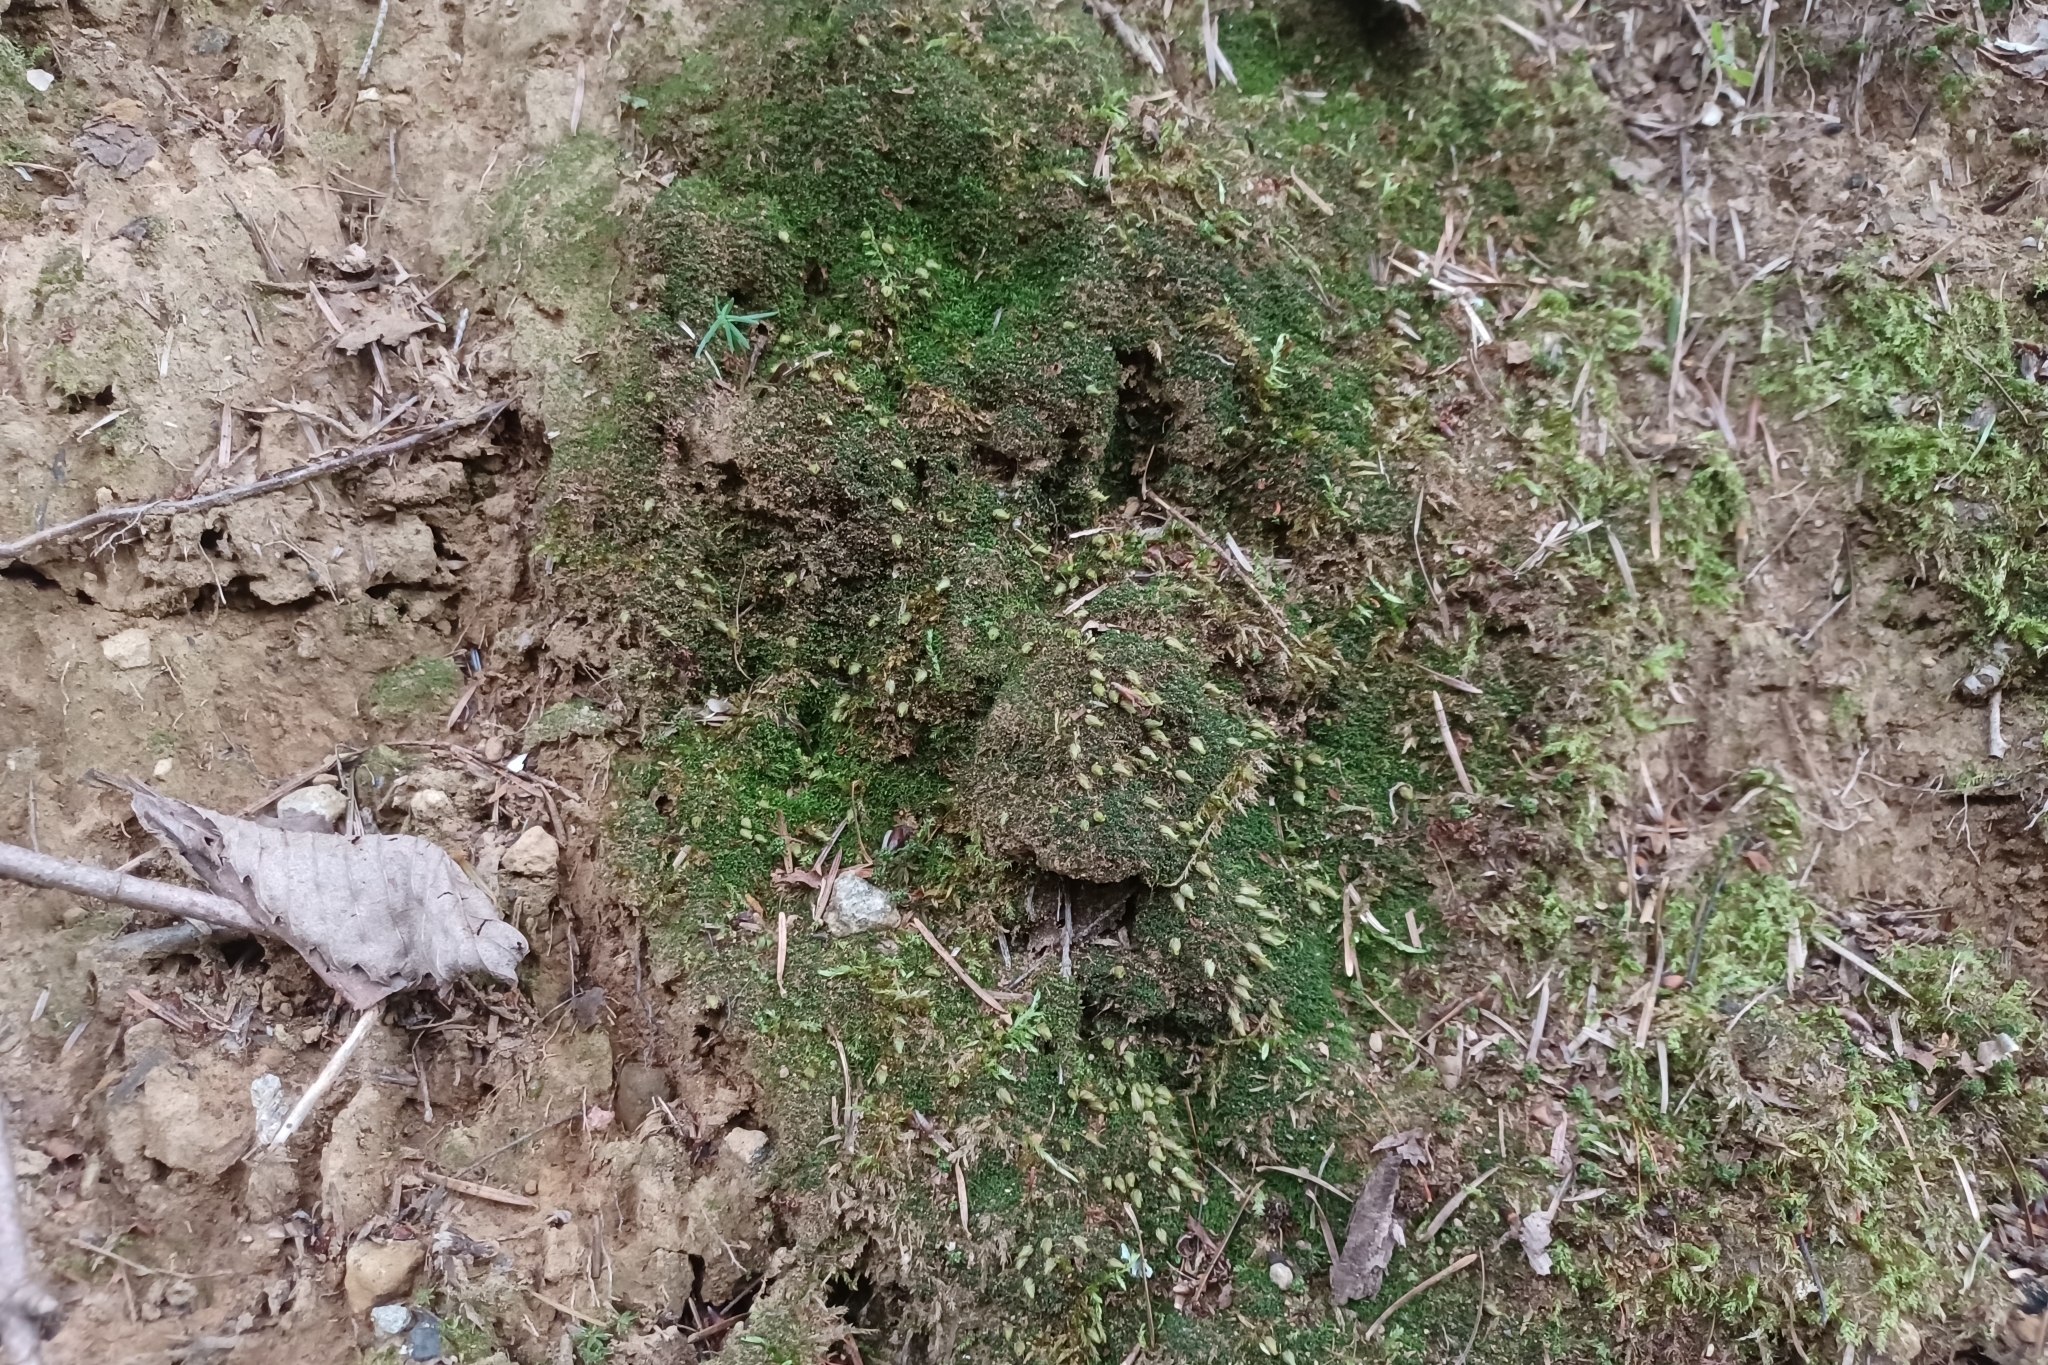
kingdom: Plantae
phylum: Bryophyta
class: Bryopsida
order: Diphysciales
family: Diphysciaceae
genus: Diphyscium
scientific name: Diphyscium foliosum
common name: Nut moss
